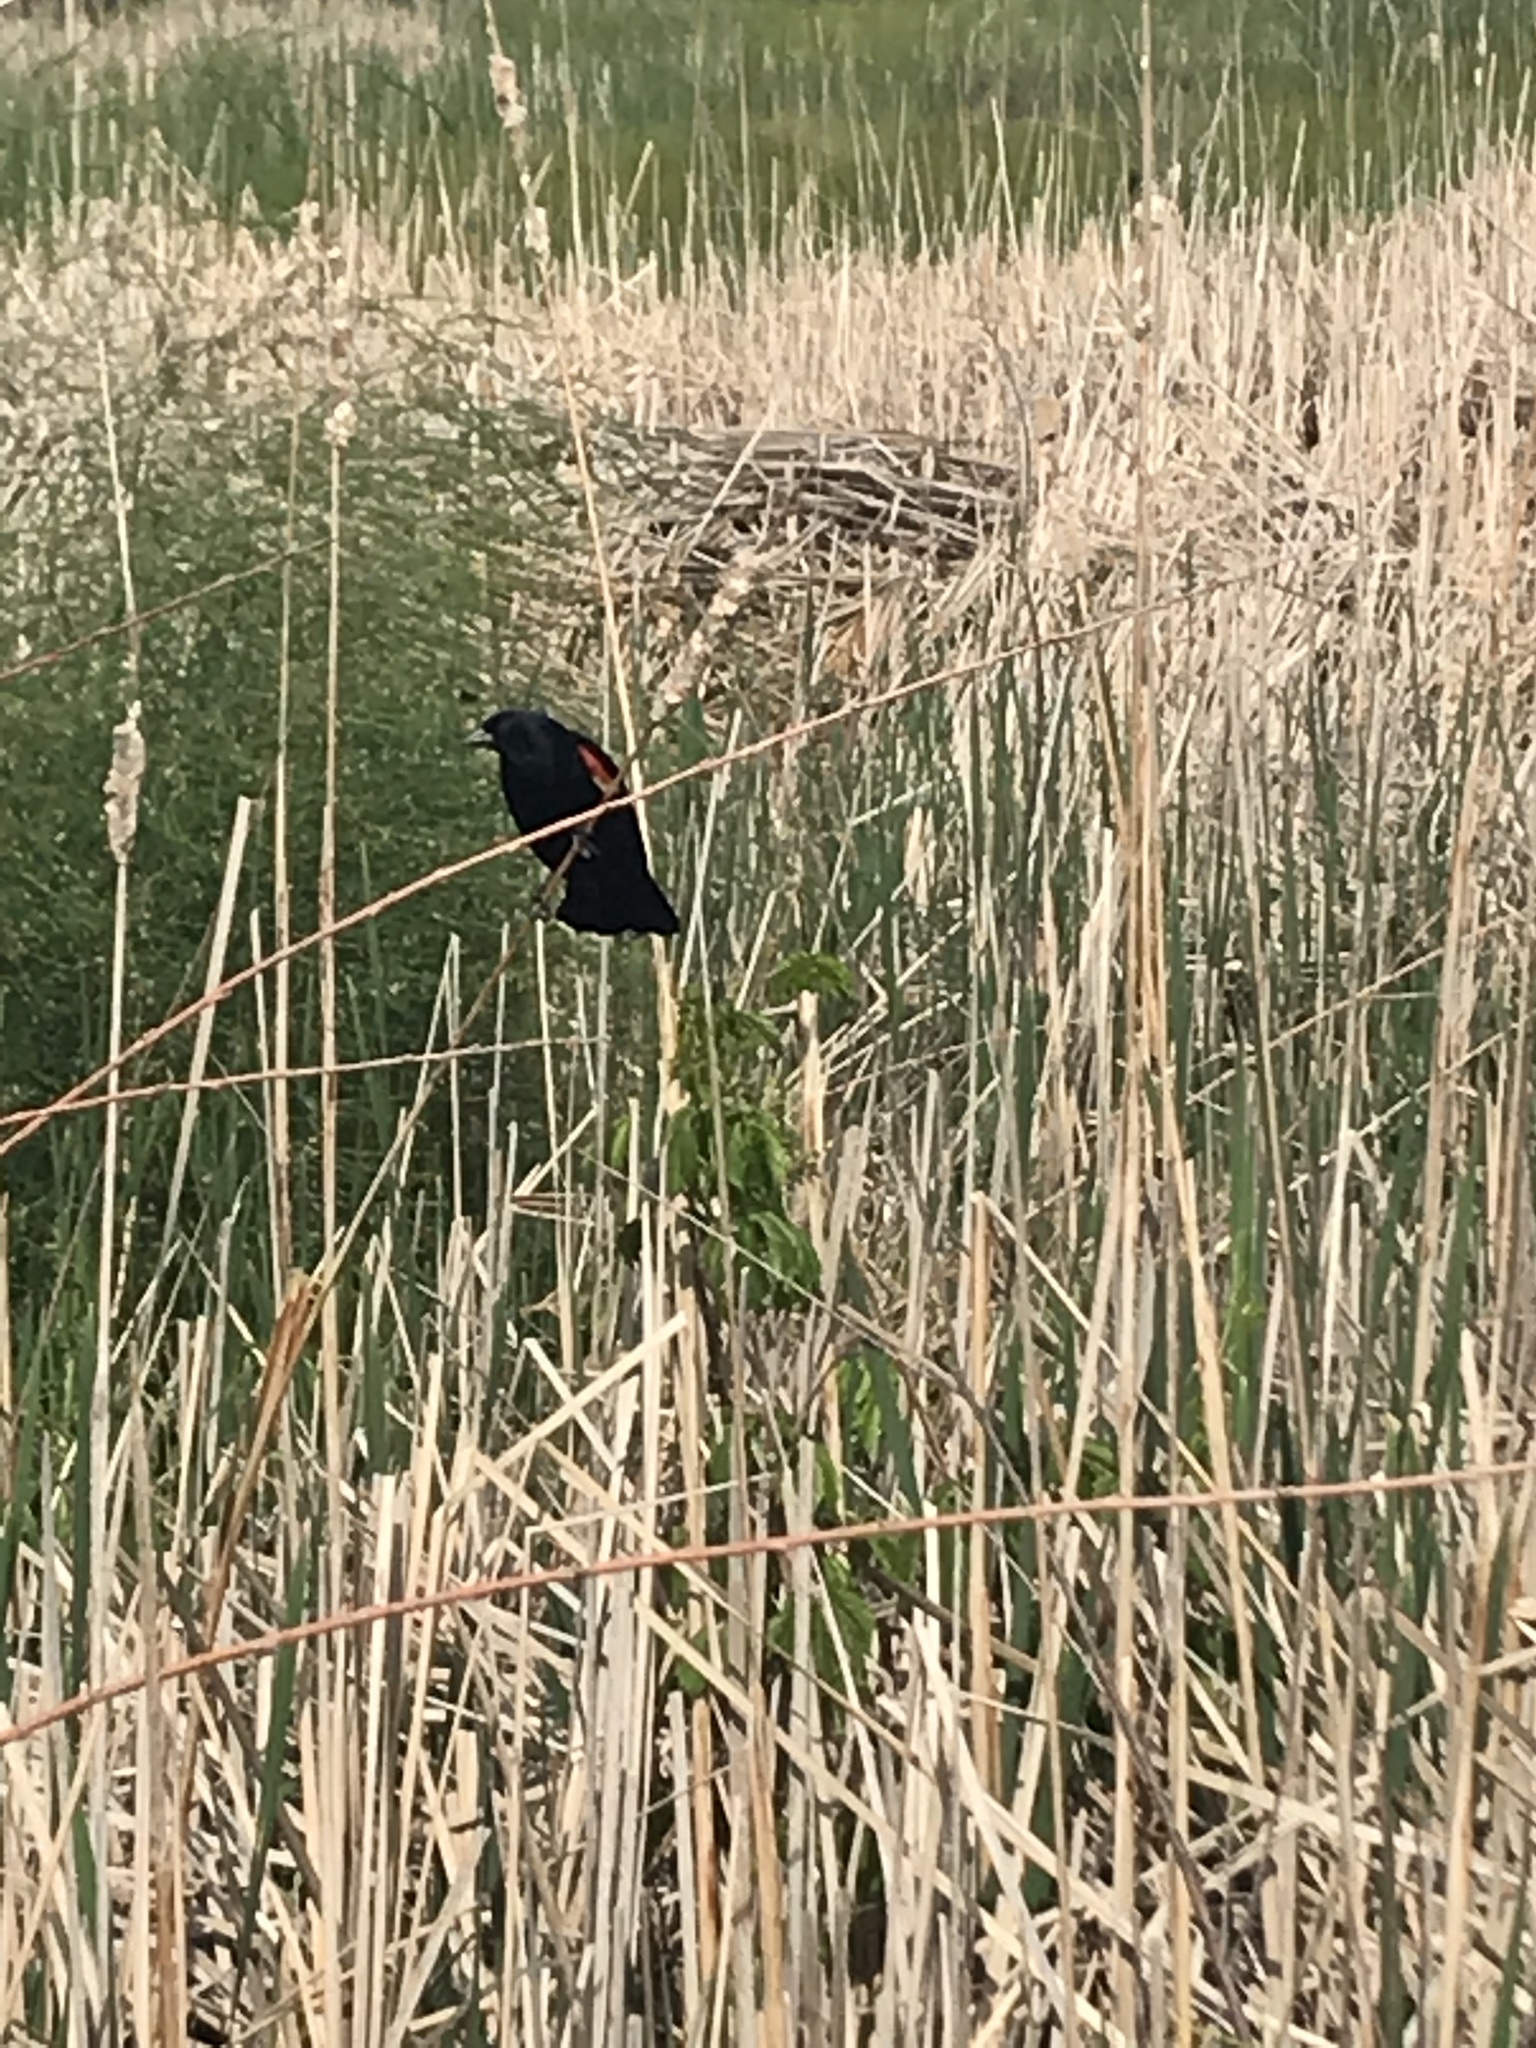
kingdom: Animalia
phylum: Chordata
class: Aves
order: Passeriformes
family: Icteridae
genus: Agelaius
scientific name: Agelaius phoeniceus
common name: Red-winged blackbird
